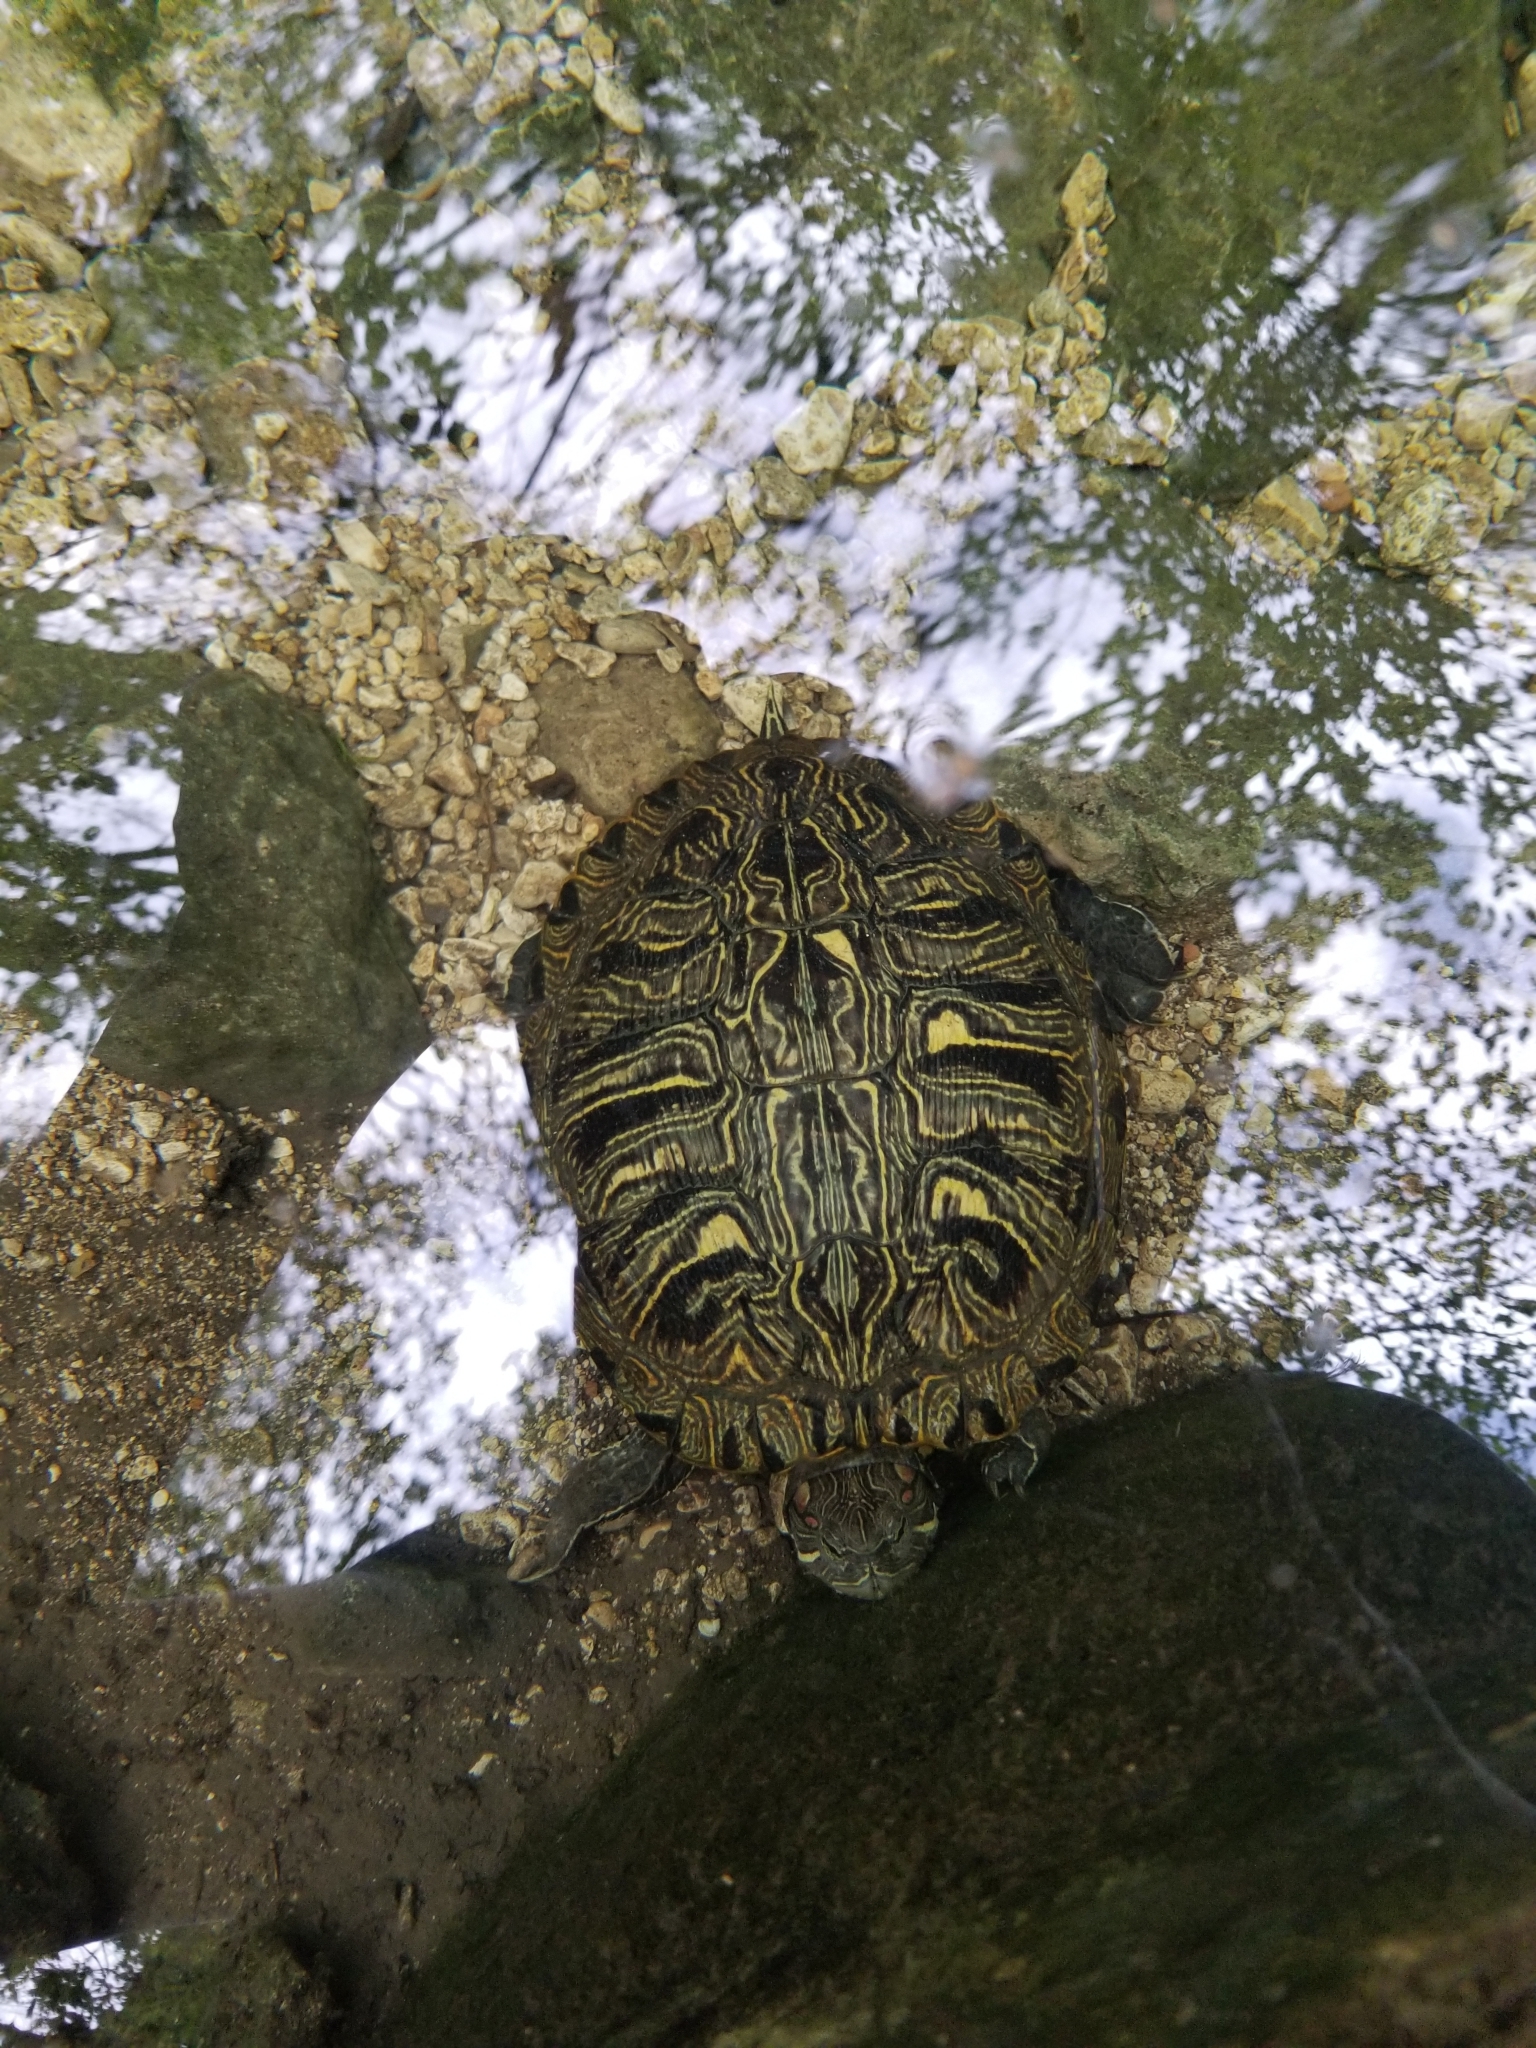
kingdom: Animalia
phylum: Chordata
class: Testudines
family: Emydidae
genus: Trachemys
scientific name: Trachemys scripta
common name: Slider
